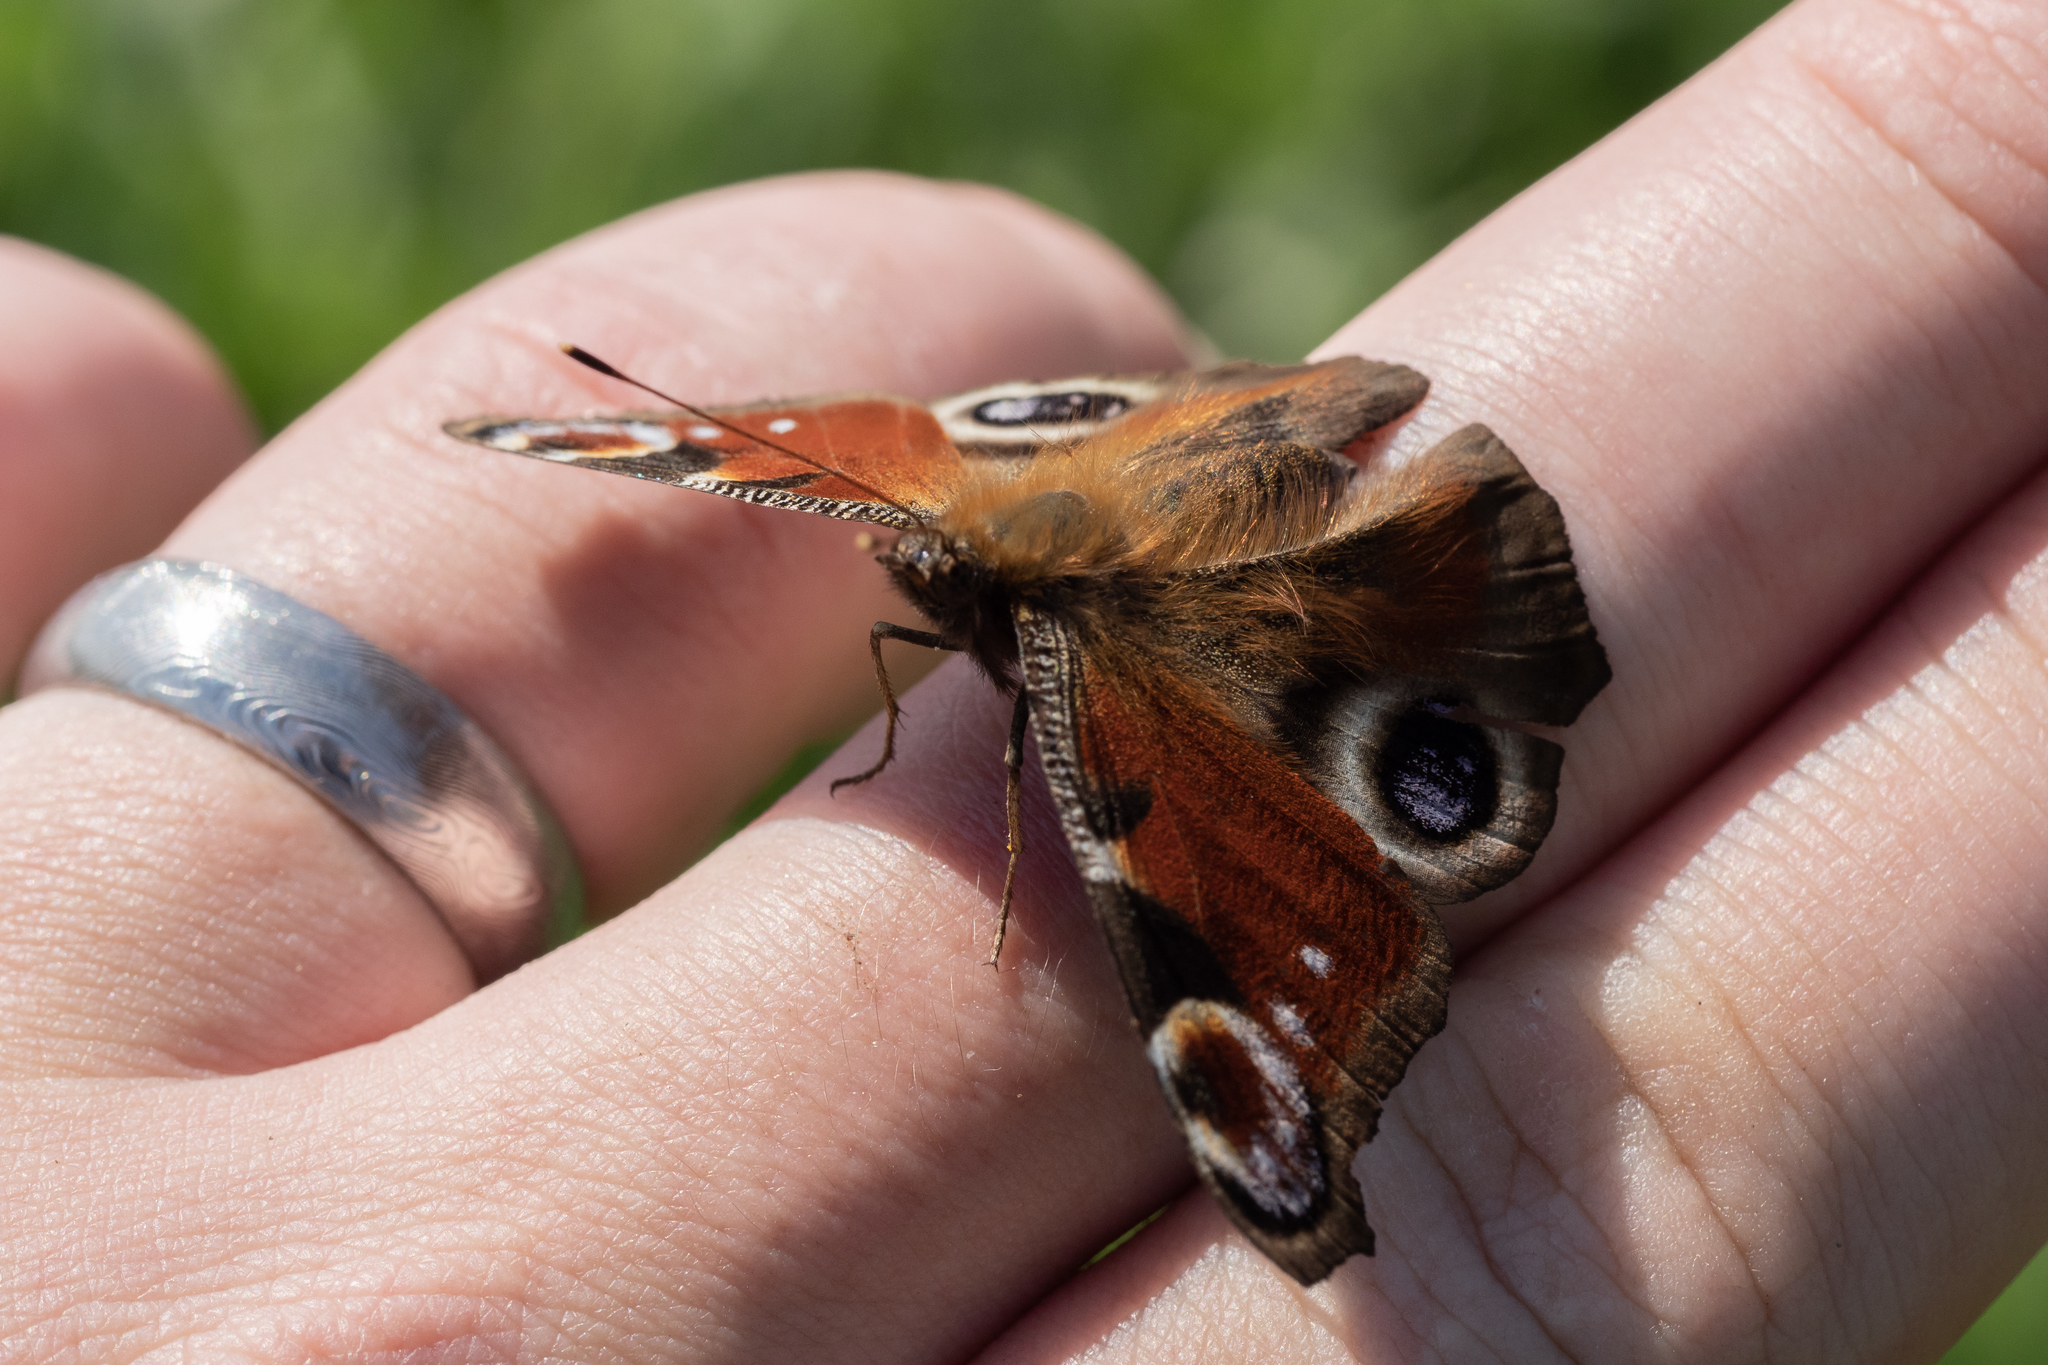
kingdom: Animalia
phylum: Arthropoda
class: Insecta
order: Lepidoptera
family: Nymphalidae
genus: Aglais
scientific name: Aglais io
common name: Peacock
